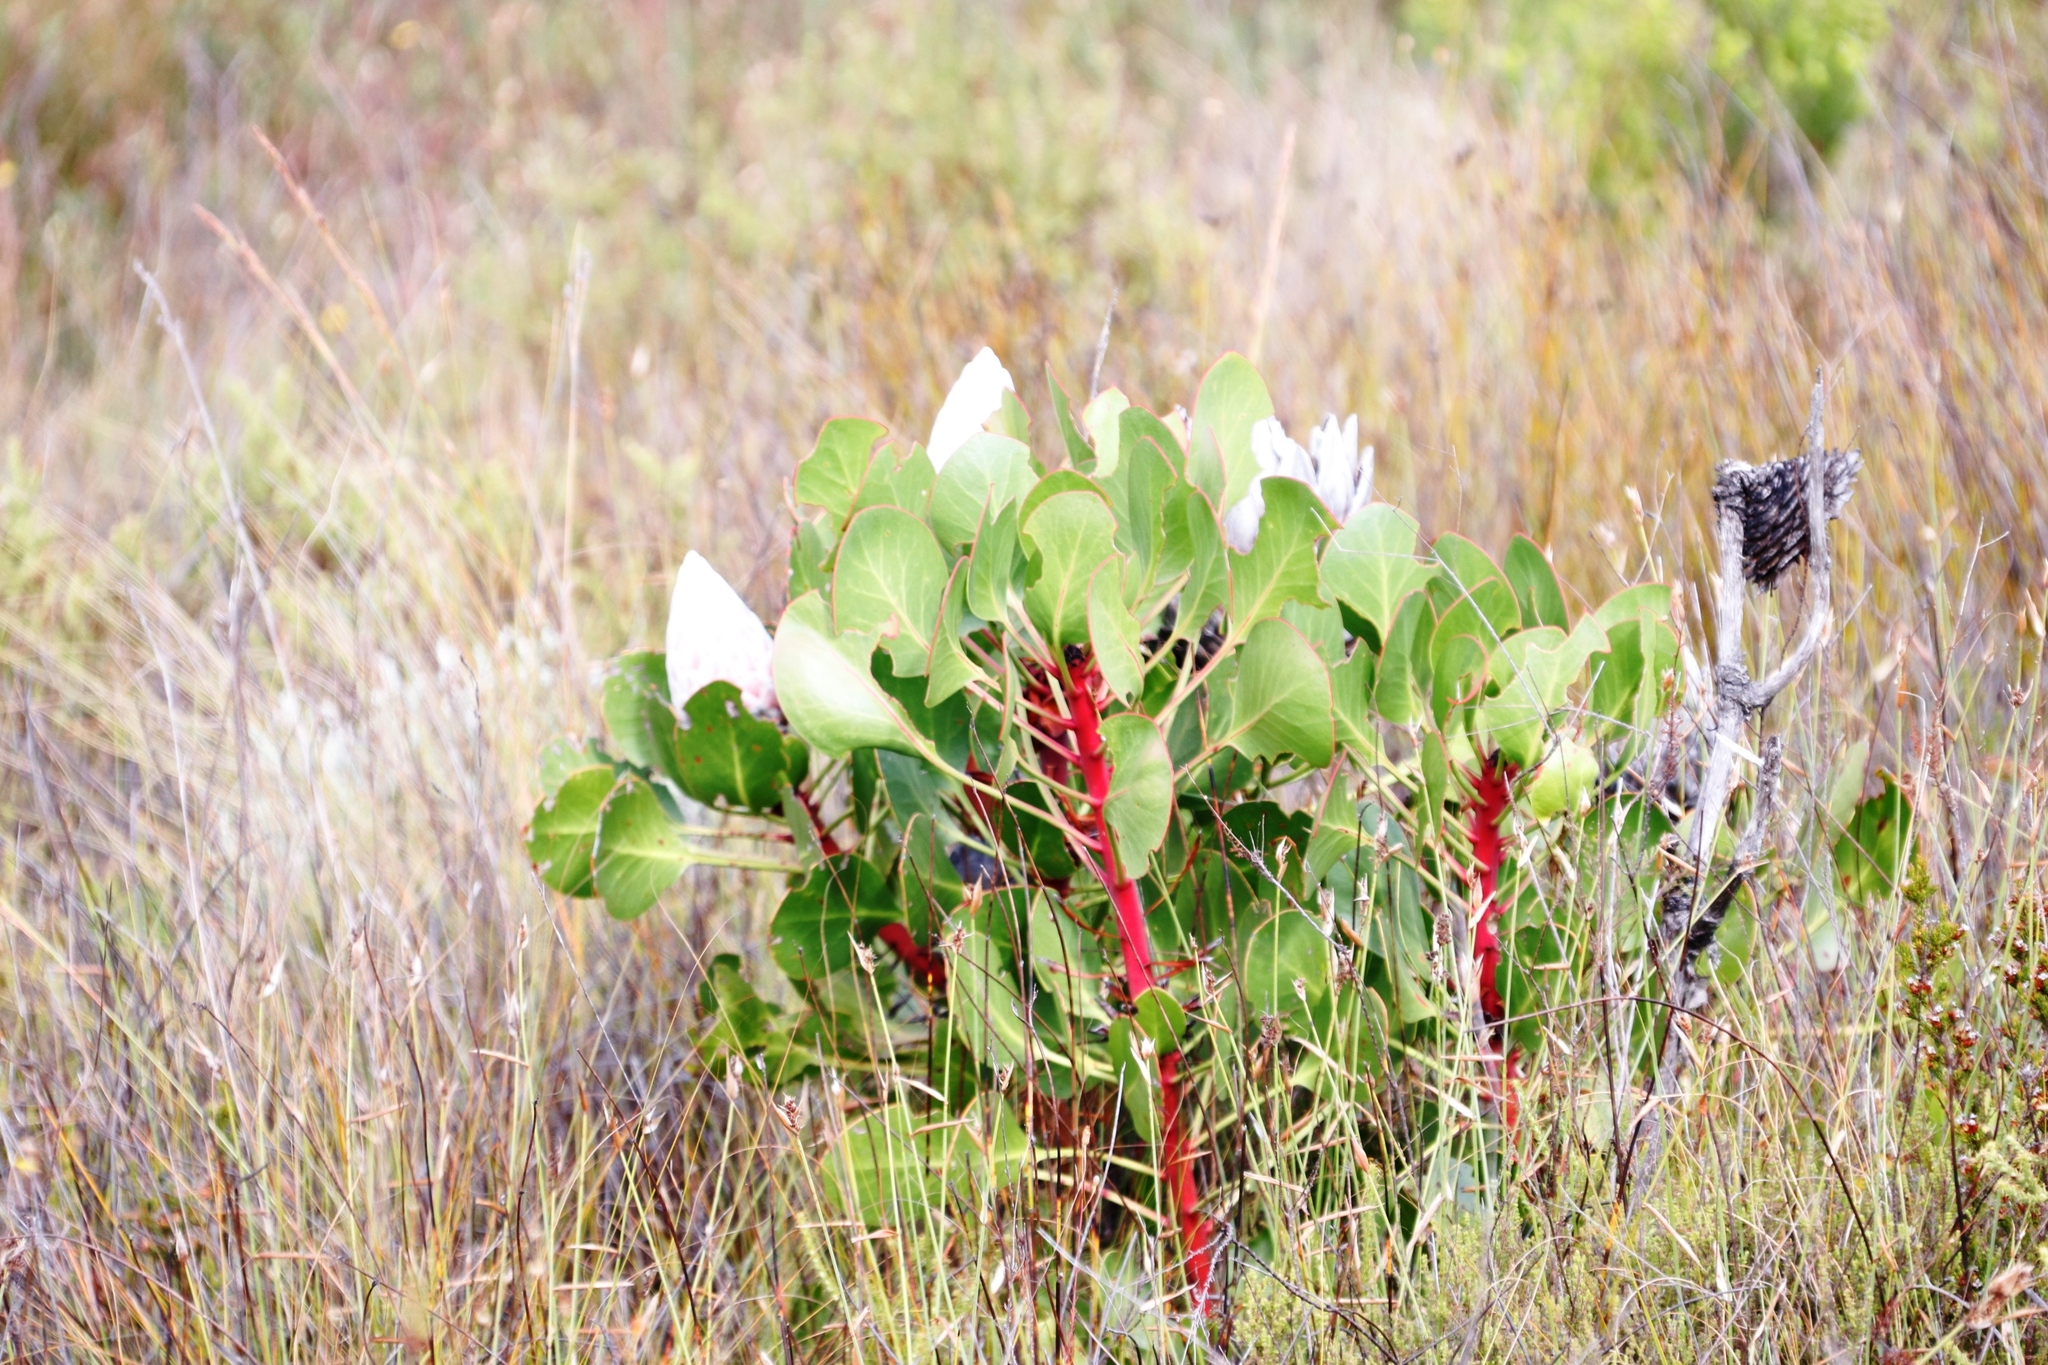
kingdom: Plantae
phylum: Tracheophyta
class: Magnoliopsida
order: Proteales
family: Proteaceae
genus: Protea
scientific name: Protea cynaroides
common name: King protea
